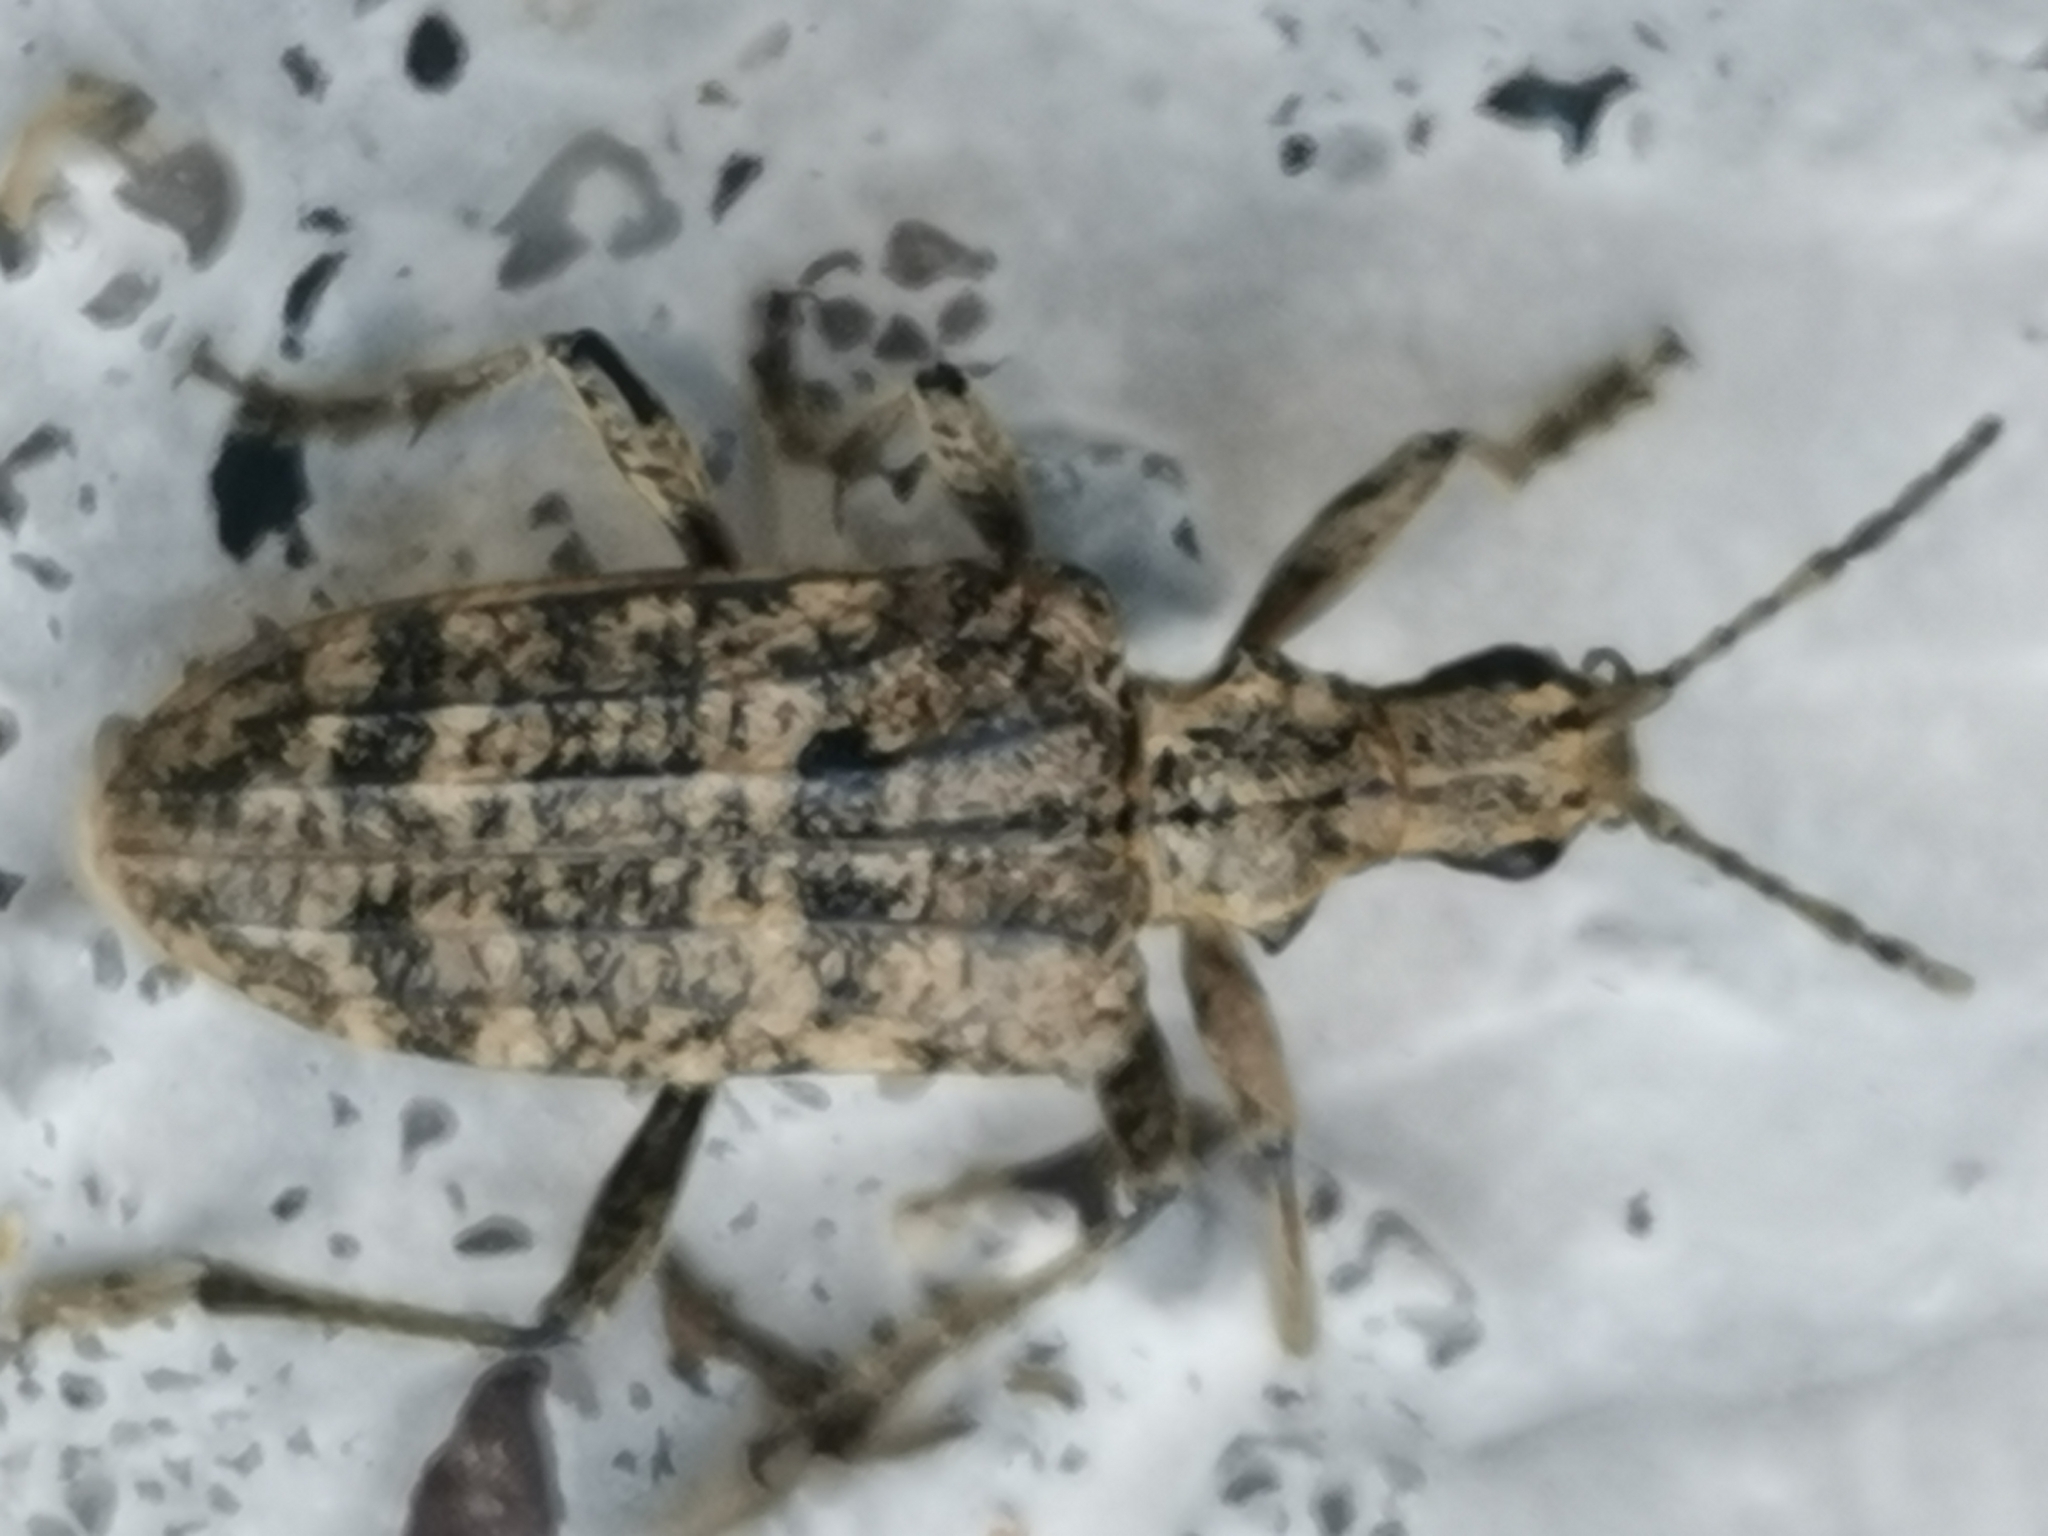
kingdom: Animalia
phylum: Arthropoda
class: Insecta
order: Coleoptera
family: Cerambycidae
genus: Rhagium
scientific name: Rhagium inquisitor
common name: Ribbed pine borer
